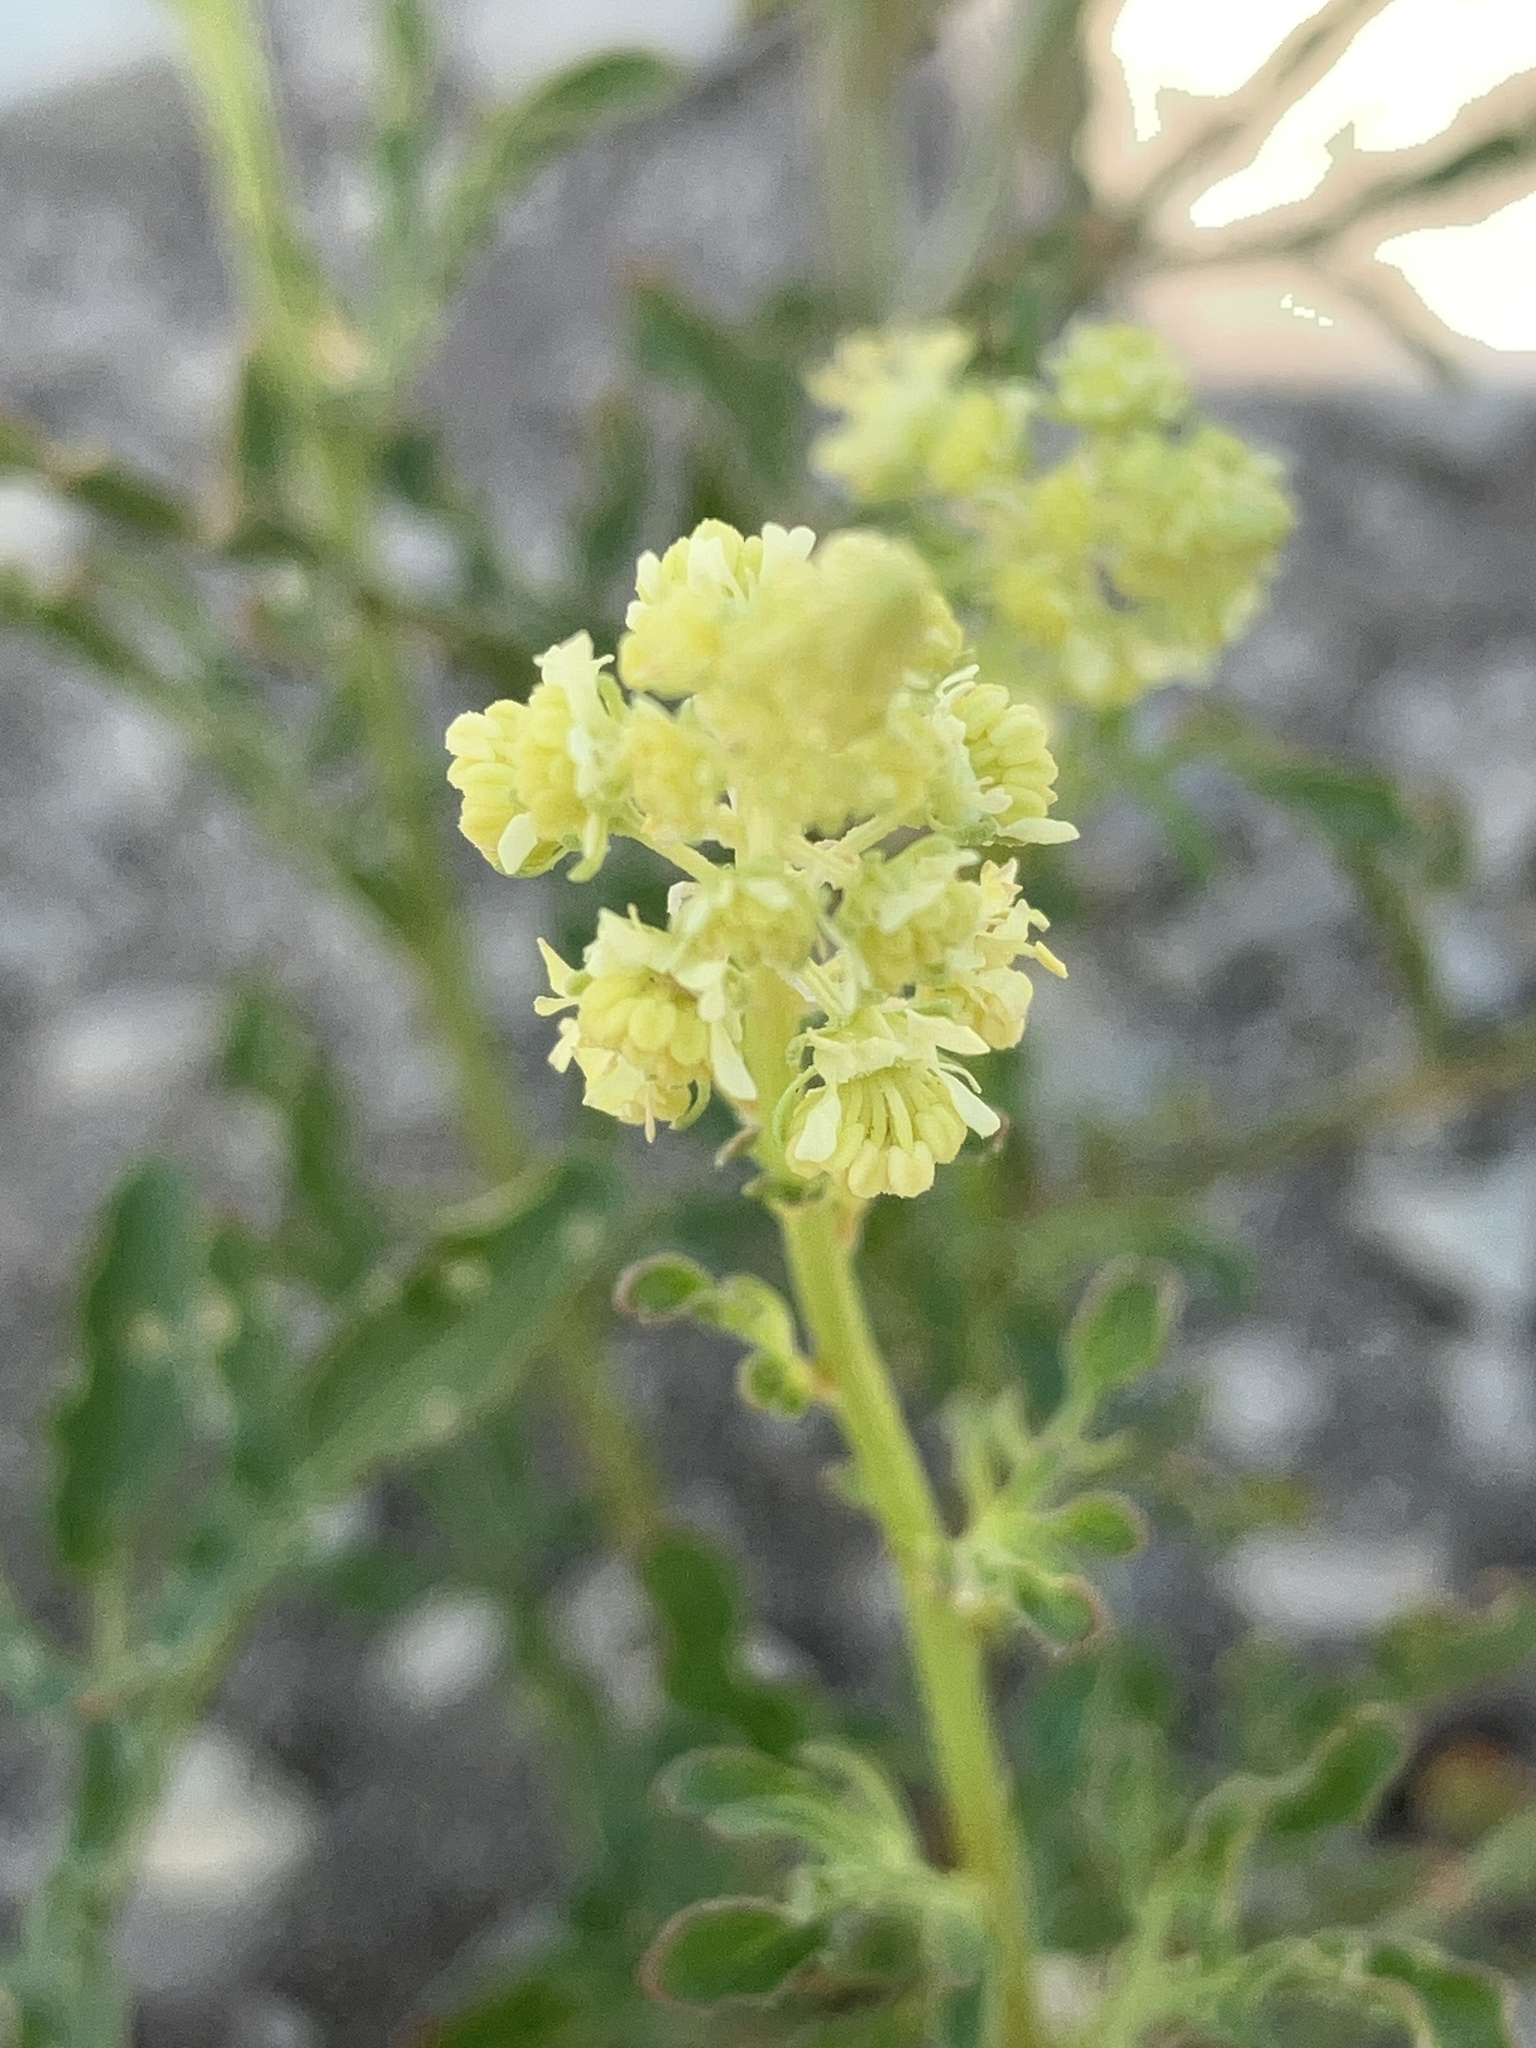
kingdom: Plantae
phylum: Tracheophyta
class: Magnoliopsida
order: Brassicales
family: Resedaceae
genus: Reseda
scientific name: Reseda lutea
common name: Wild mignonette
